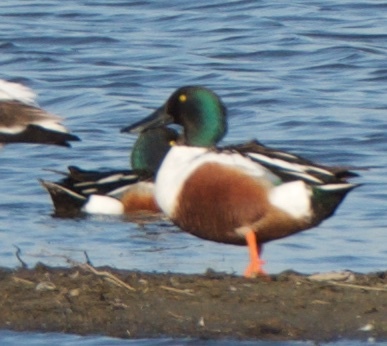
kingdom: Animalia
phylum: Chordata
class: Aves
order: Anseriformes
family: Anatidae
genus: Spatula
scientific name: Spatula clypeata
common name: Northern shoveler
